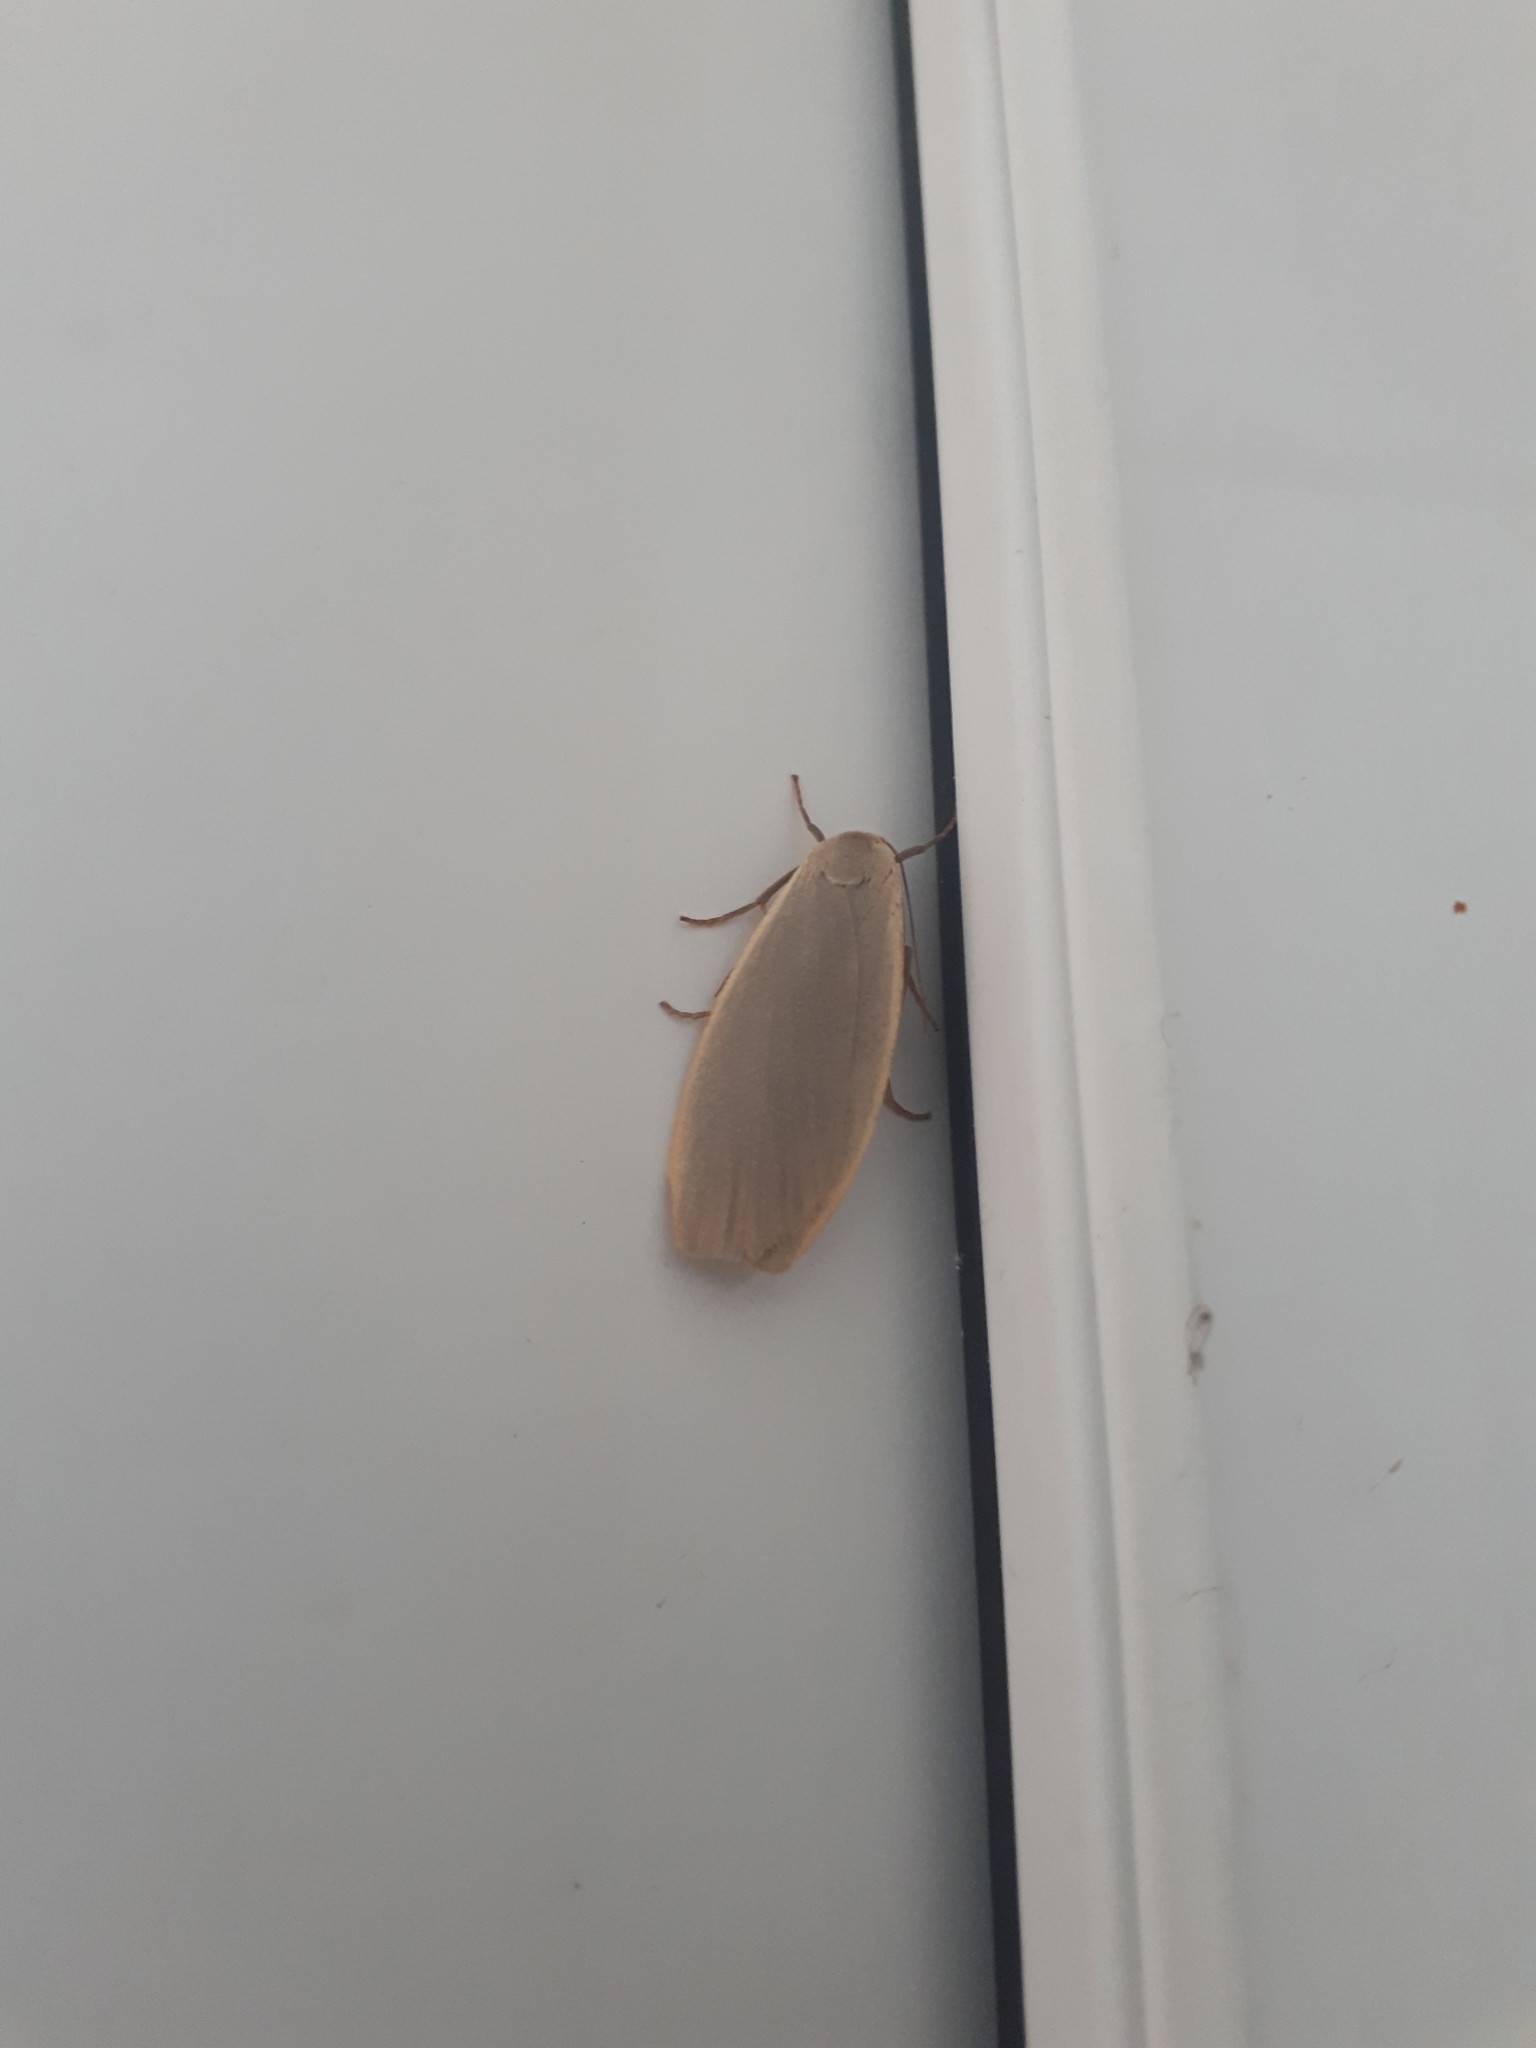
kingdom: Animalia
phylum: Arthropoda
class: Insecta
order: Lepidoptera
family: Erebidae
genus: Collita
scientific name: Collita griseola
